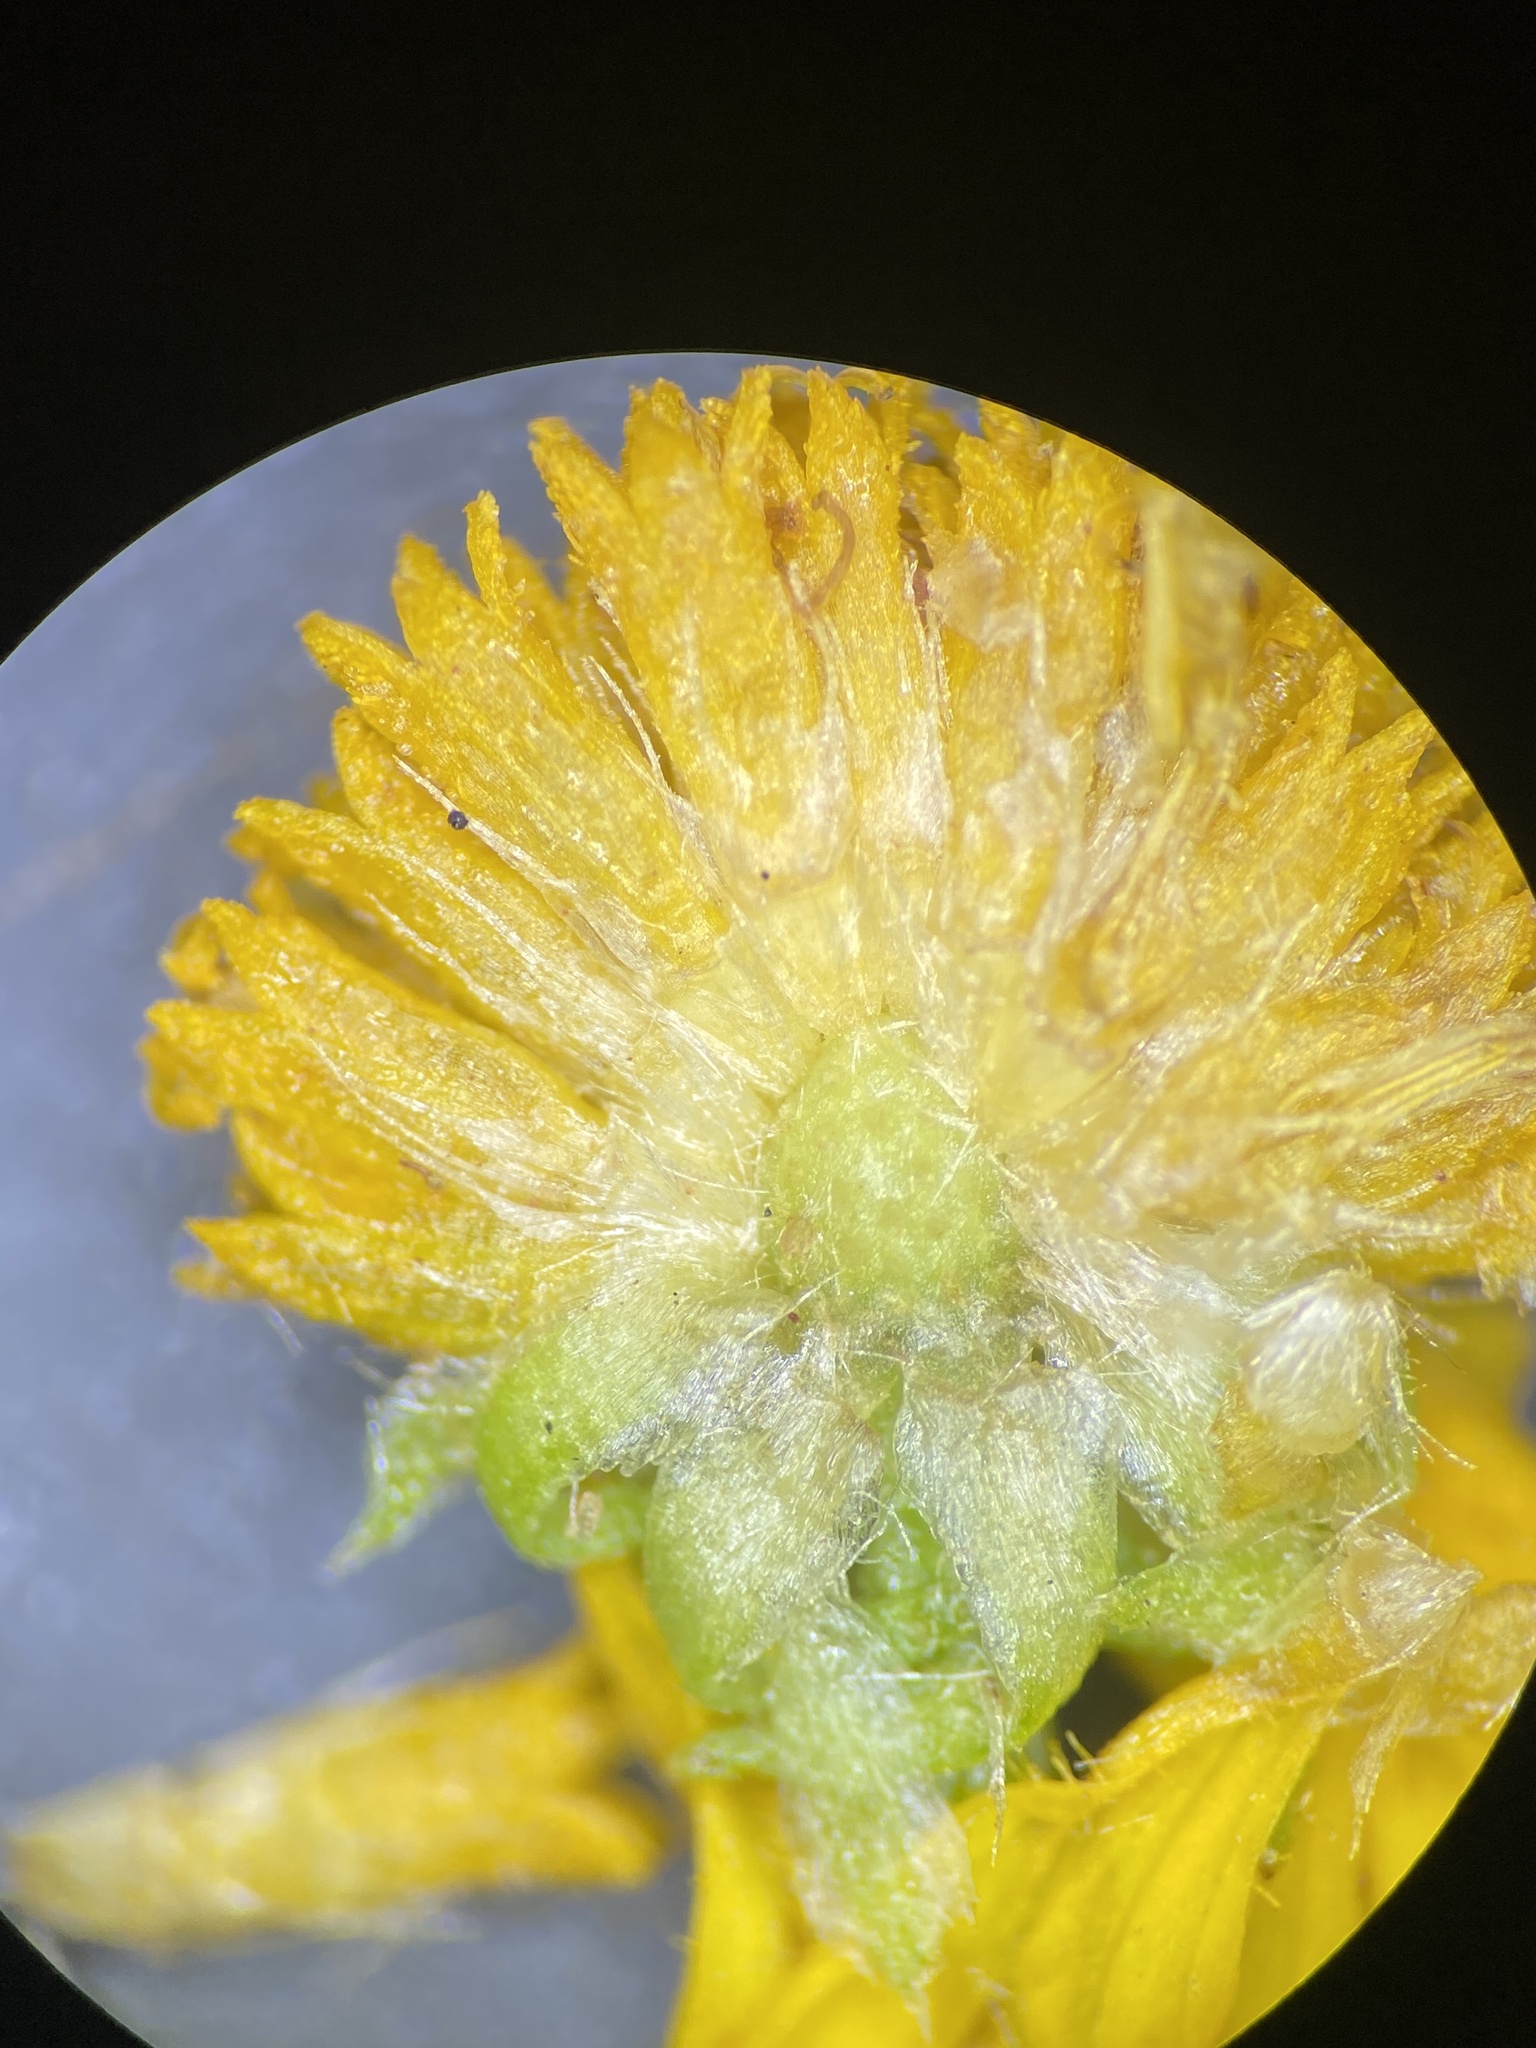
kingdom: Plantae
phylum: Tracheophyta
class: Magnoliopsida
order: Asterales
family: Asteraceae
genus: Helenium
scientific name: Helenium amarum
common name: Bitter sneezeweed
